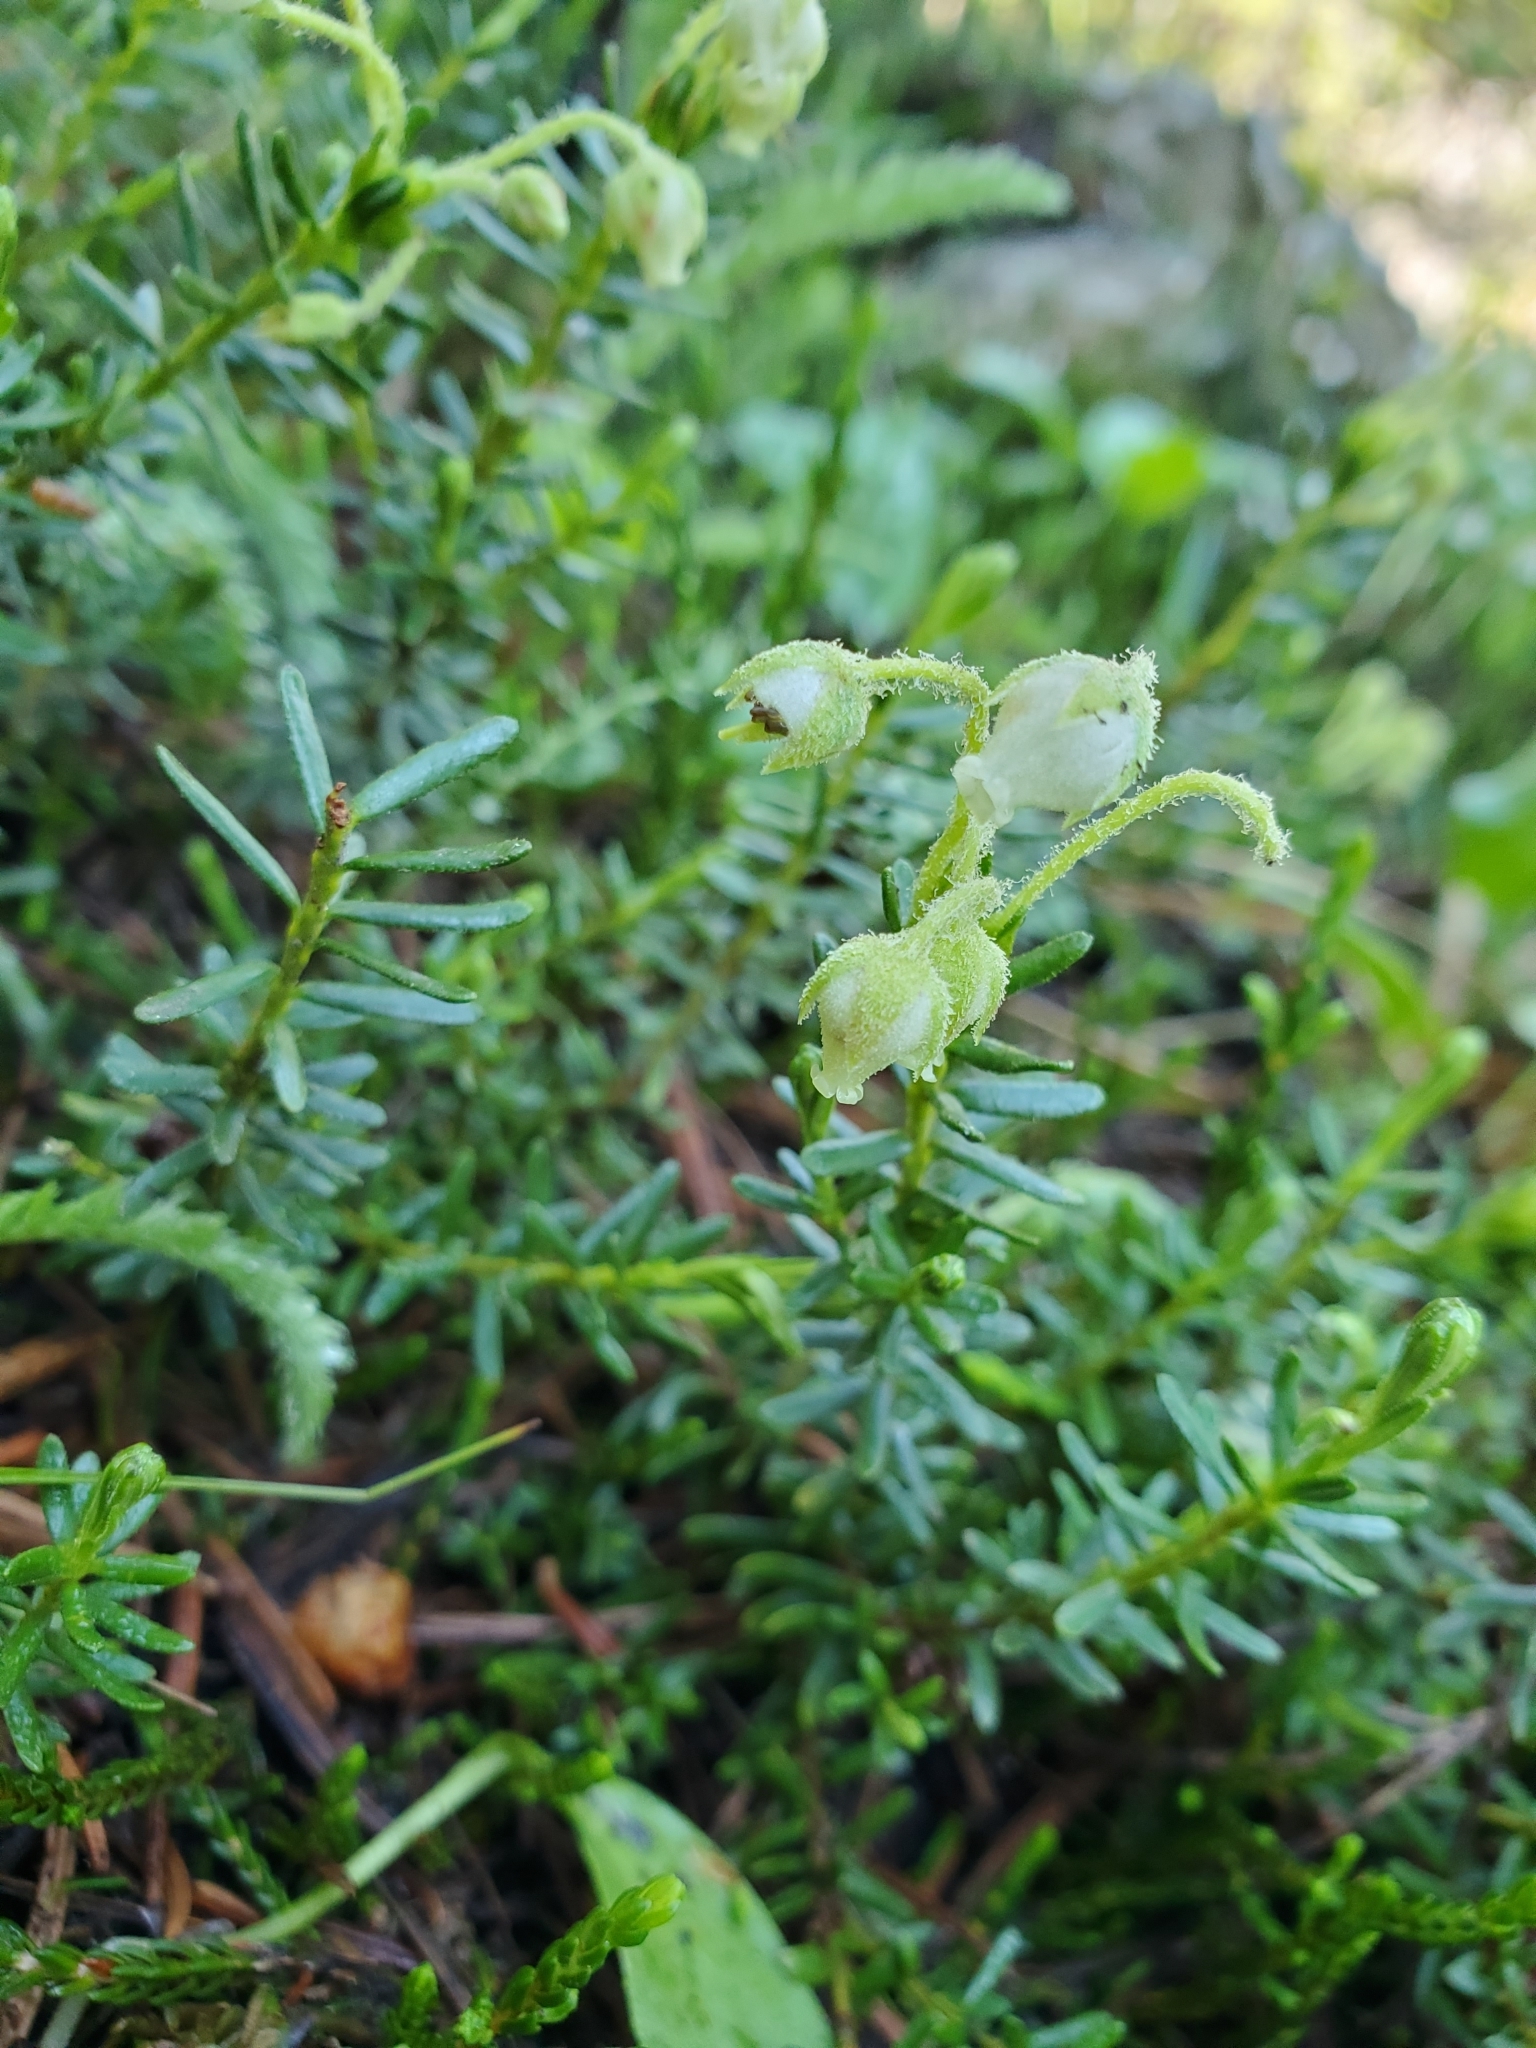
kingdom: Plantae
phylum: Tracheophyta
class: Magnoliopsida
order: Ericales
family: Ericaceae
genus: Phyllodoce
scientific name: Phyllodoce glanduliflora
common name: Cream mountain heather
